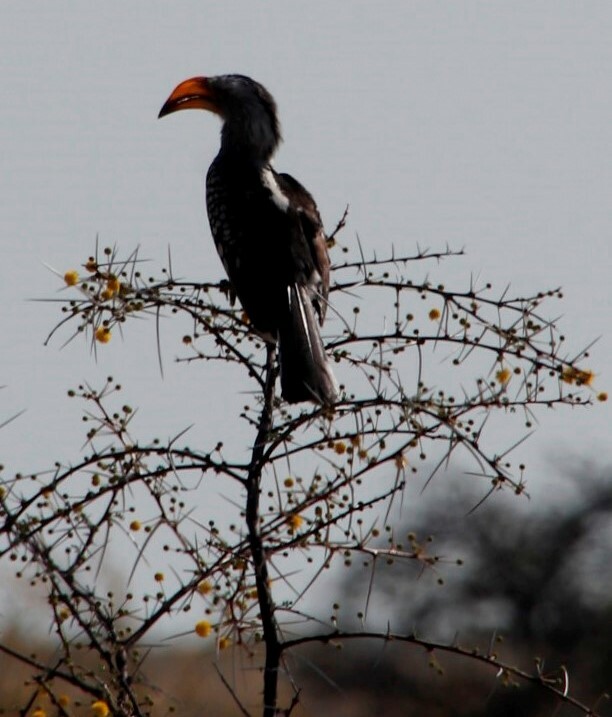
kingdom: Animalia
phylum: Chordata
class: Aves
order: Bucerotiformes
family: Bucerotidae
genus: Tockus
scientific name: Tockus leucomelas
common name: Southern yellow-billed hornbill
